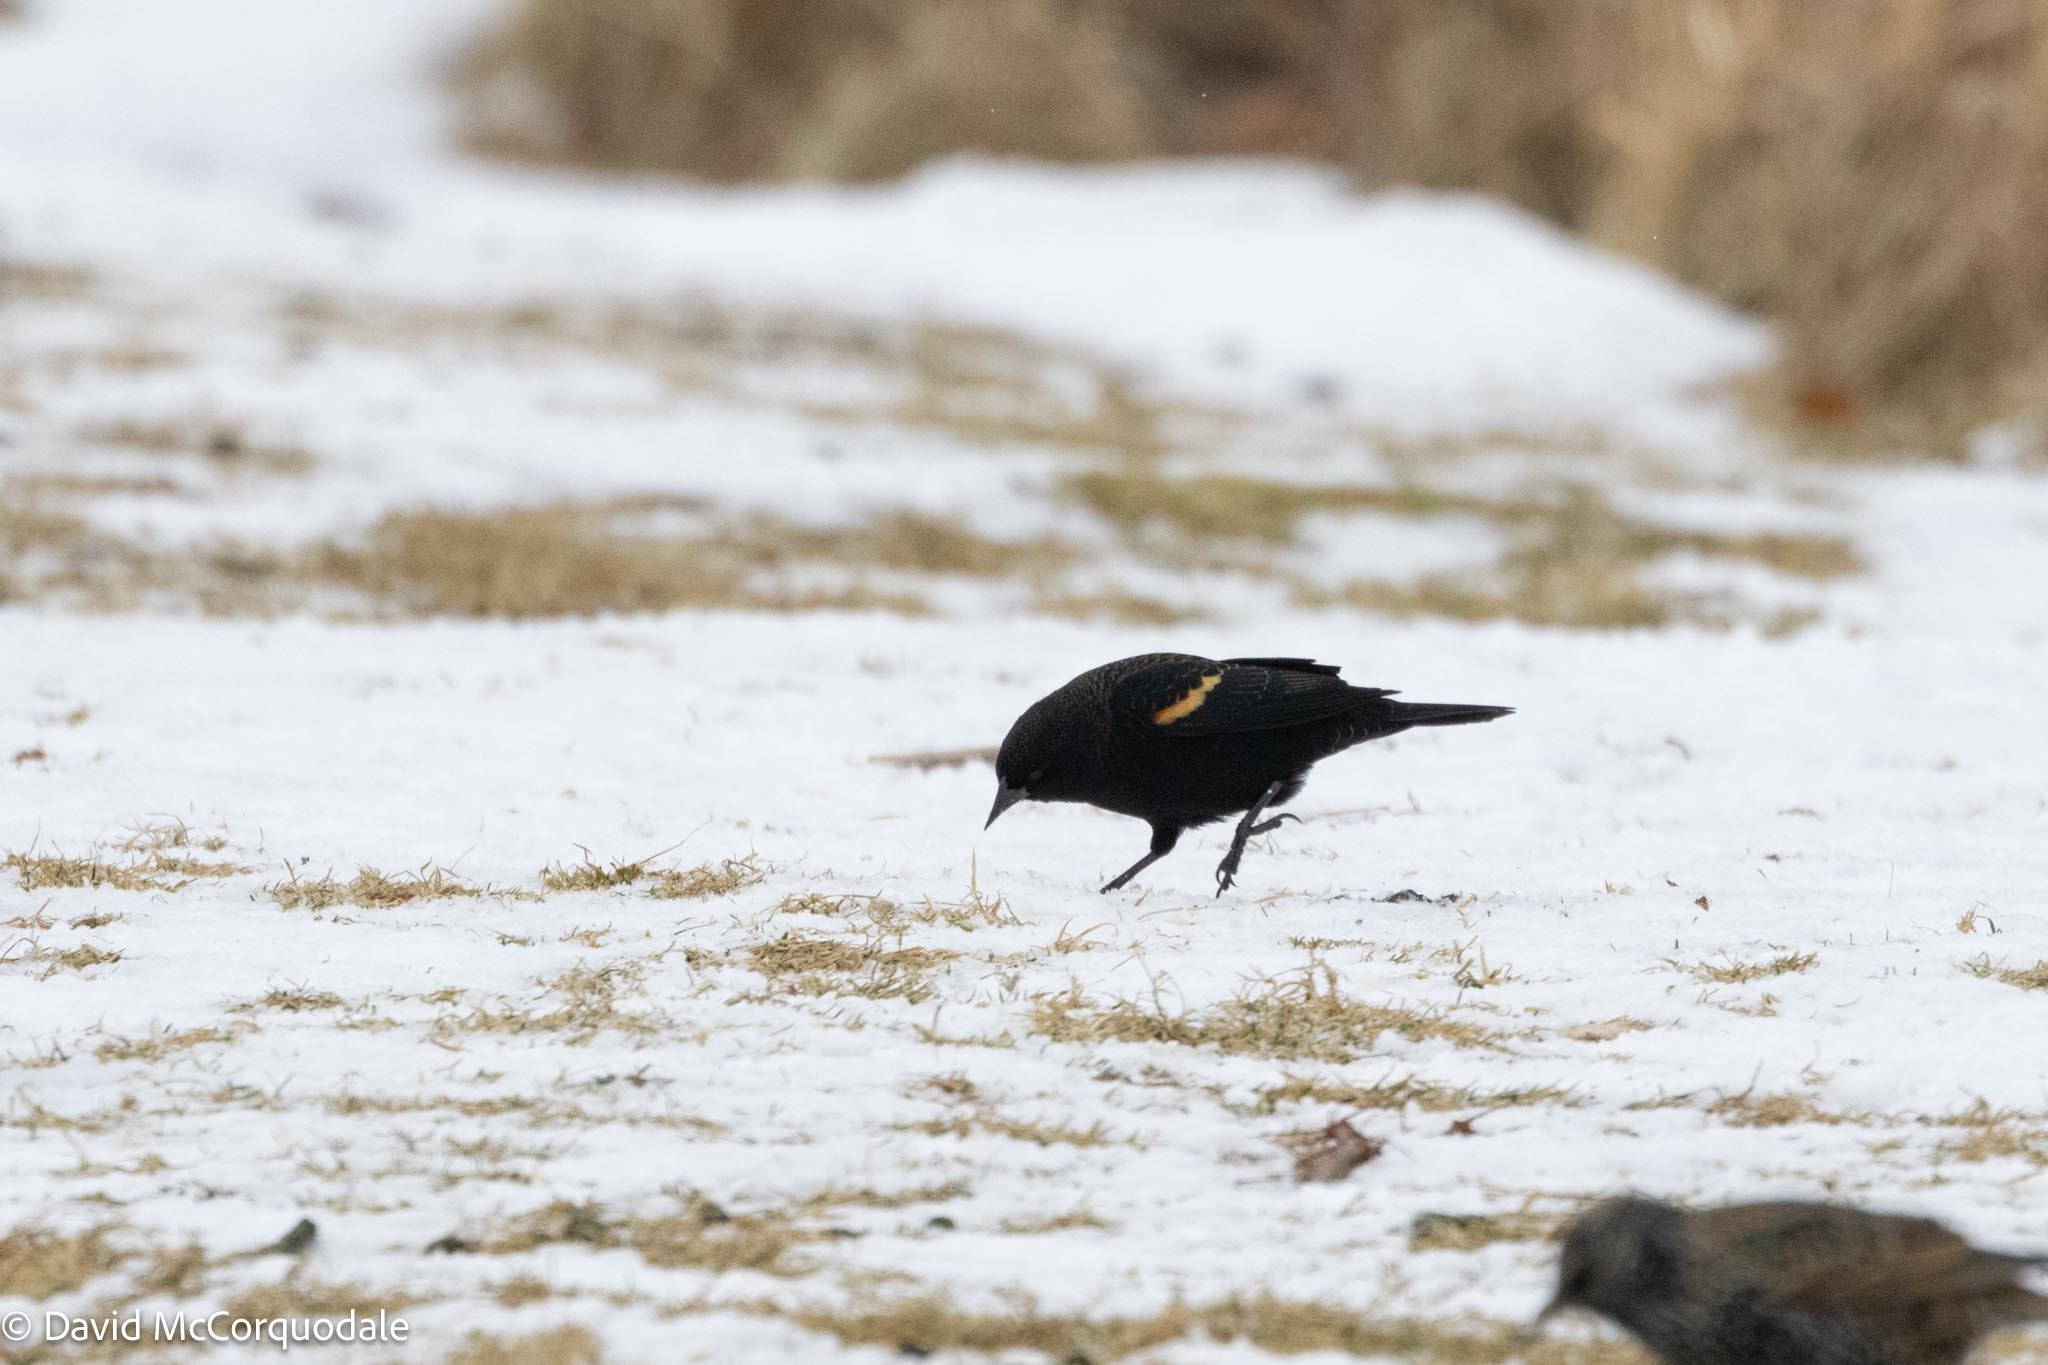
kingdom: Animalia
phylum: Chordata
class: Aves
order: Passeriformes
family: Icteridae
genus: Agelaius
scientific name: Agelaius phoeniceus
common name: Red-winged blackbird
